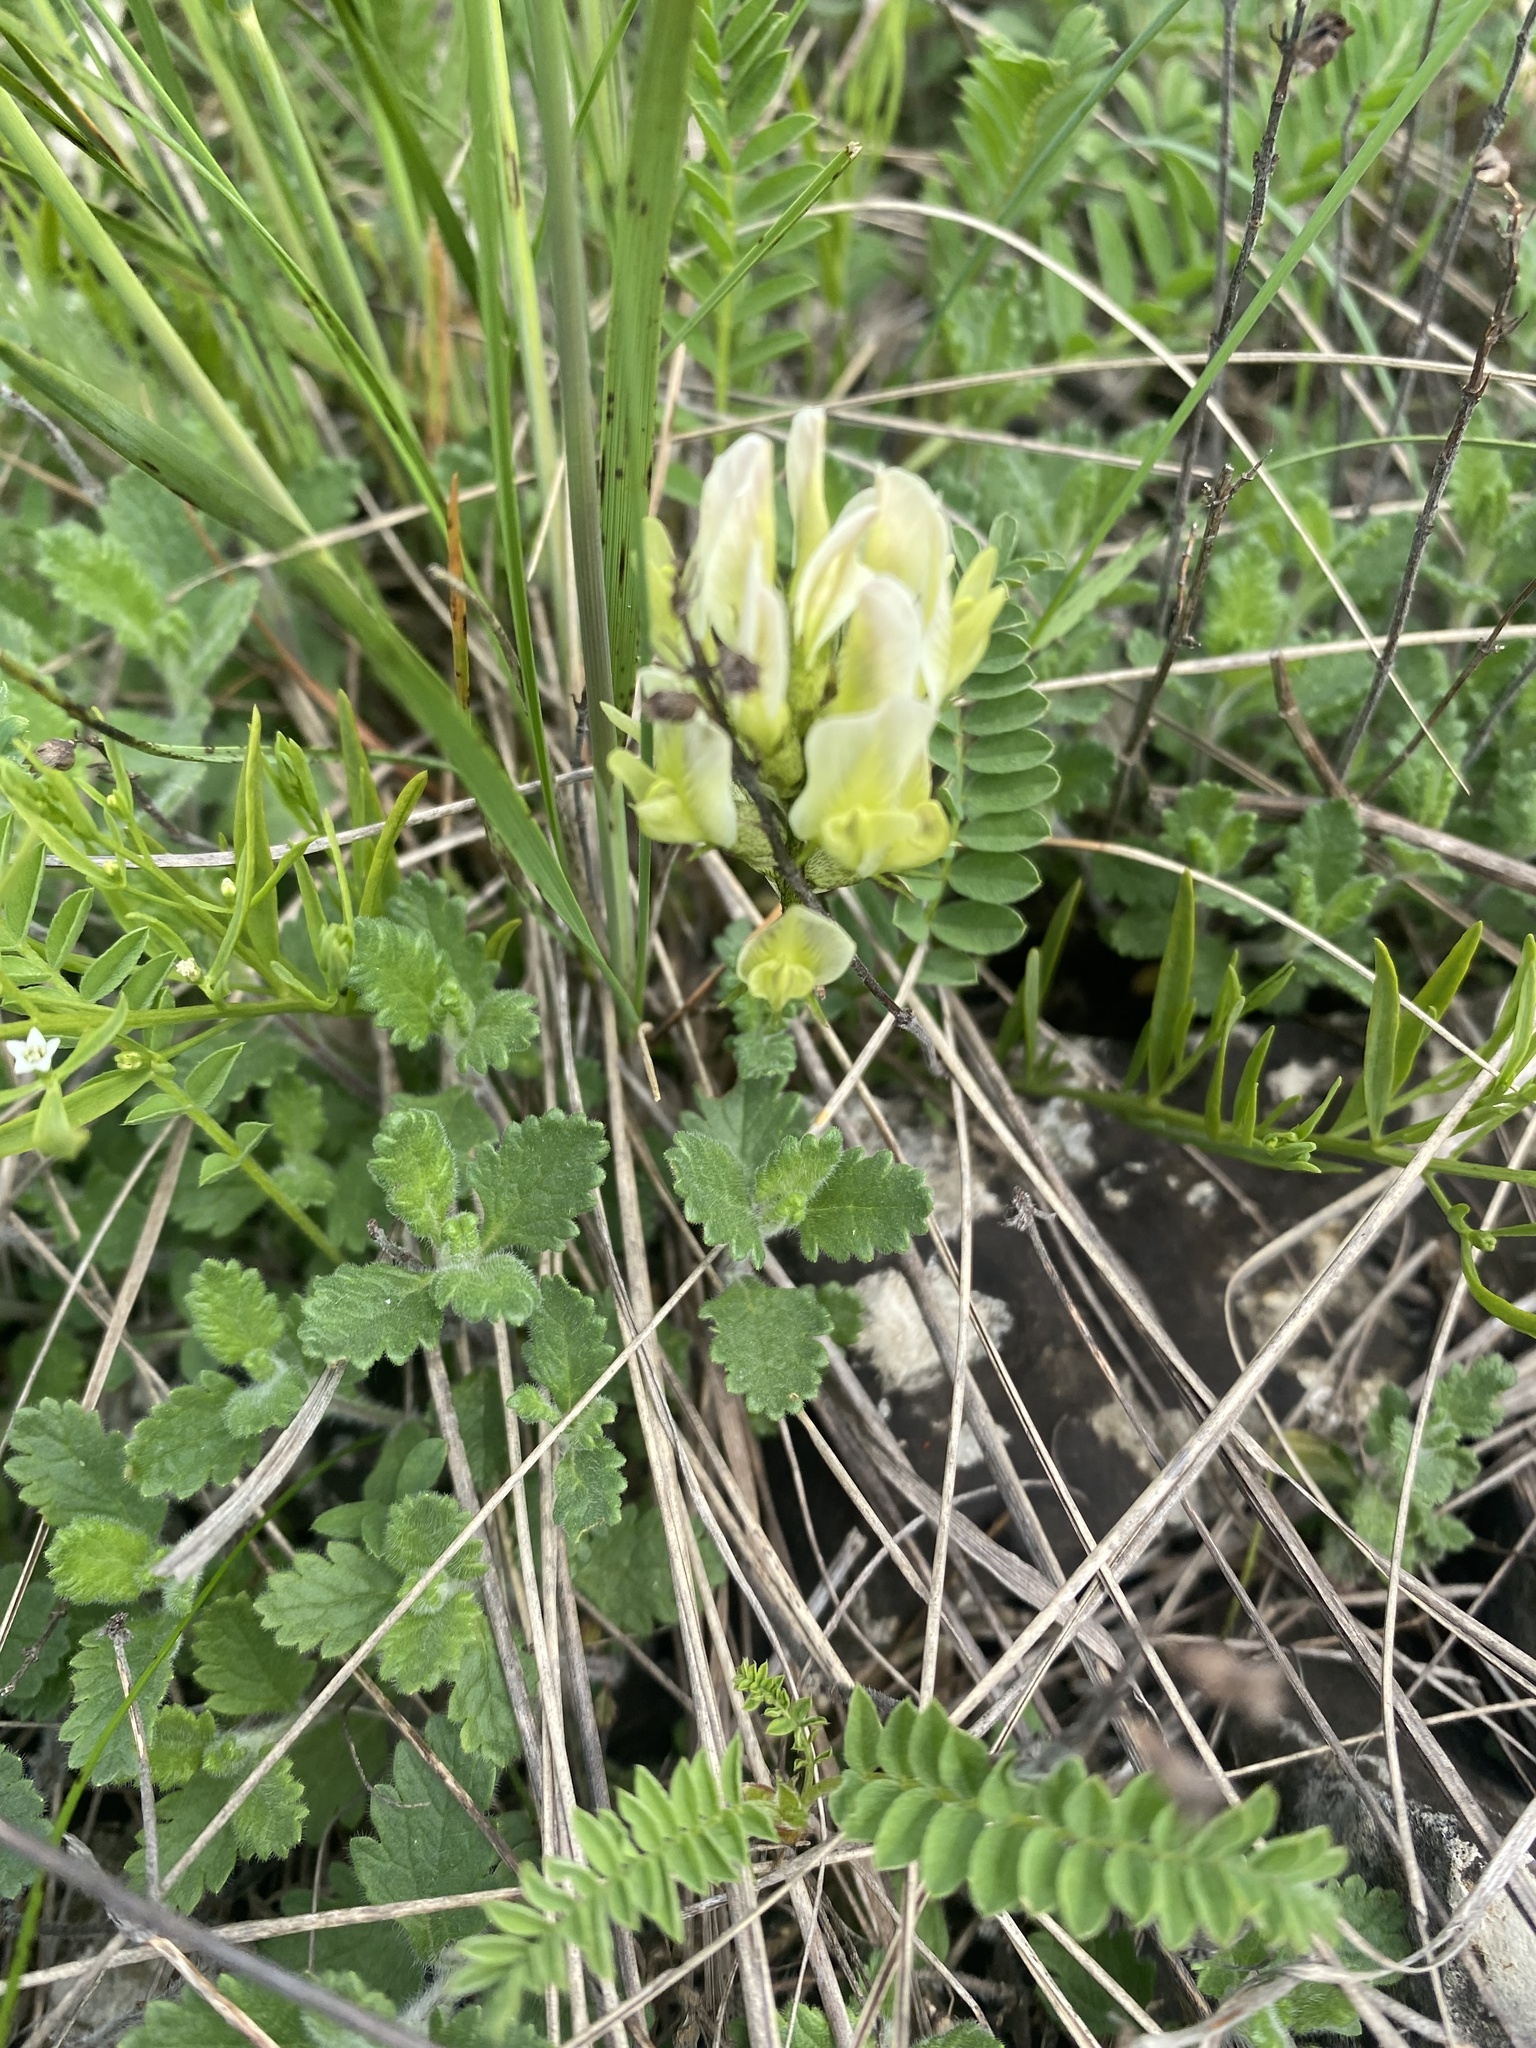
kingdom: Plantae
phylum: Tracheophyta
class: Magnoliopsida
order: Fabales
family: Fabaceae
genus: Astragalus
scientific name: Astragalus cicer
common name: Chick-pea milk-vetch
